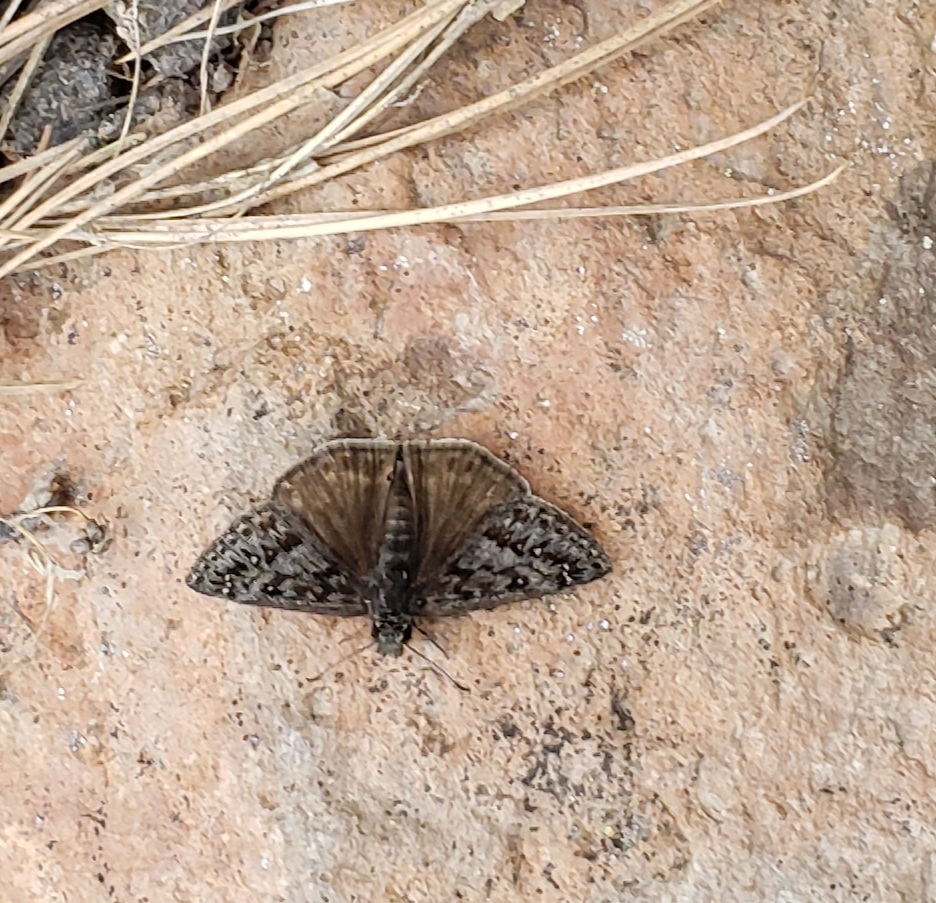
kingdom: Animalia
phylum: Arthropoda
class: Insecta
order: Lepidoptera
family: Hesperiidae
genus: Erynnis
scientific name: Erynnis telemachus
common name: Rocky mountain duskywing
